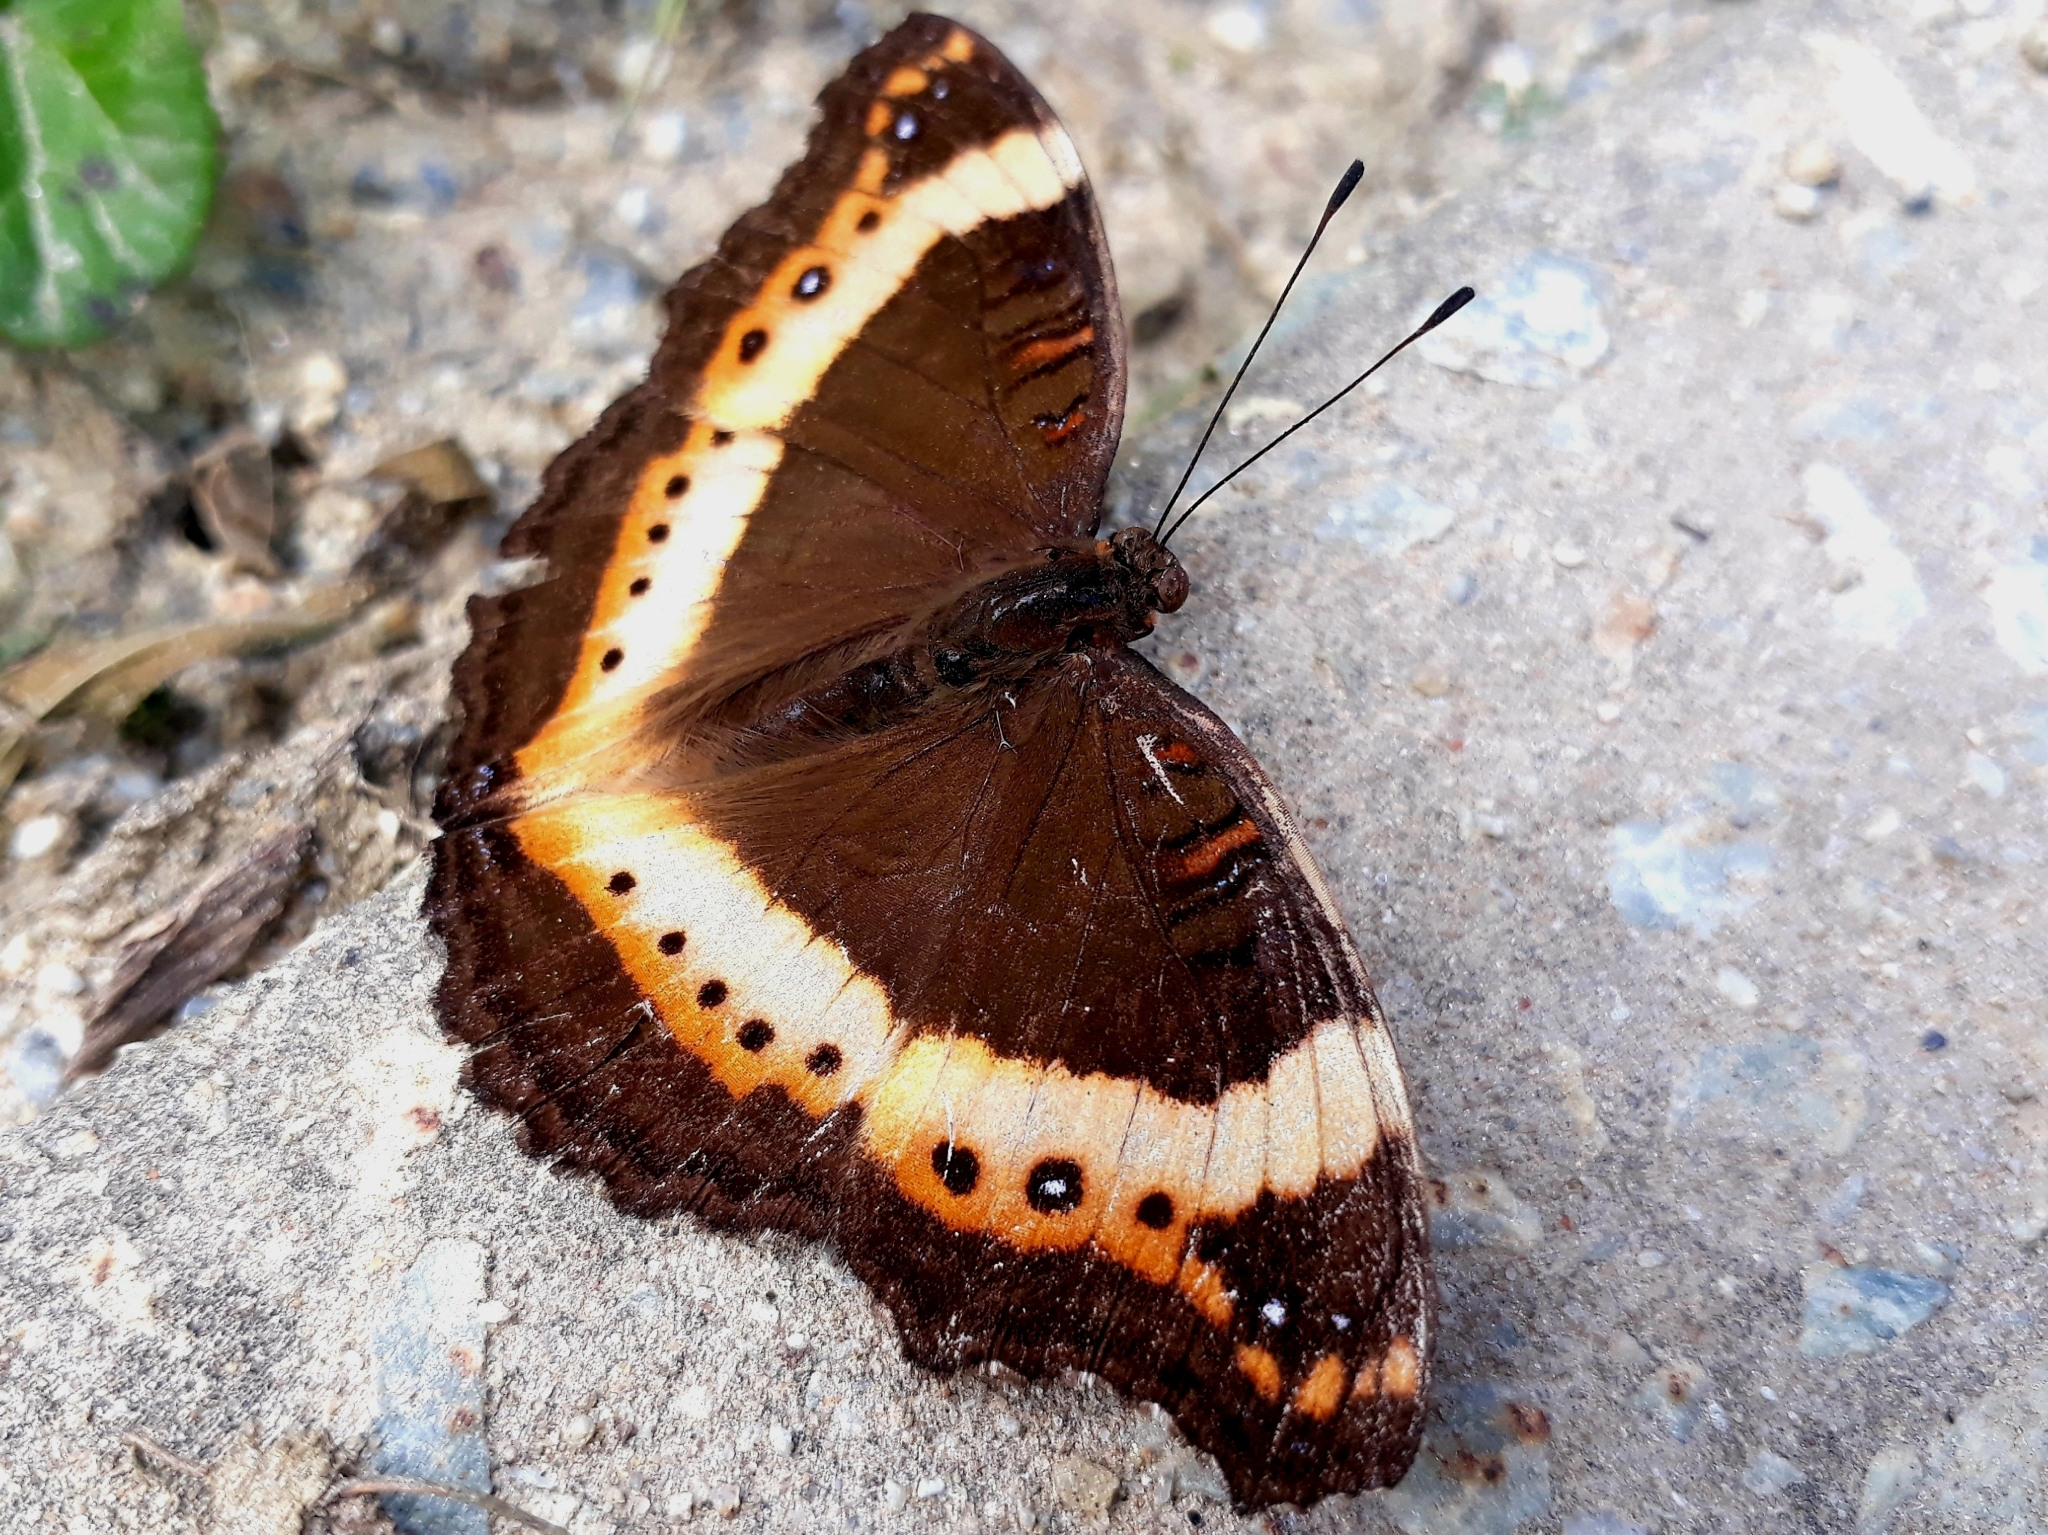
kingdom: Animalia
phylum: Arthropoda
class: Insecta
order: Lepidoptera
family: Nymphalidae
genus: Junonia
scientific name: Junonia archesia
